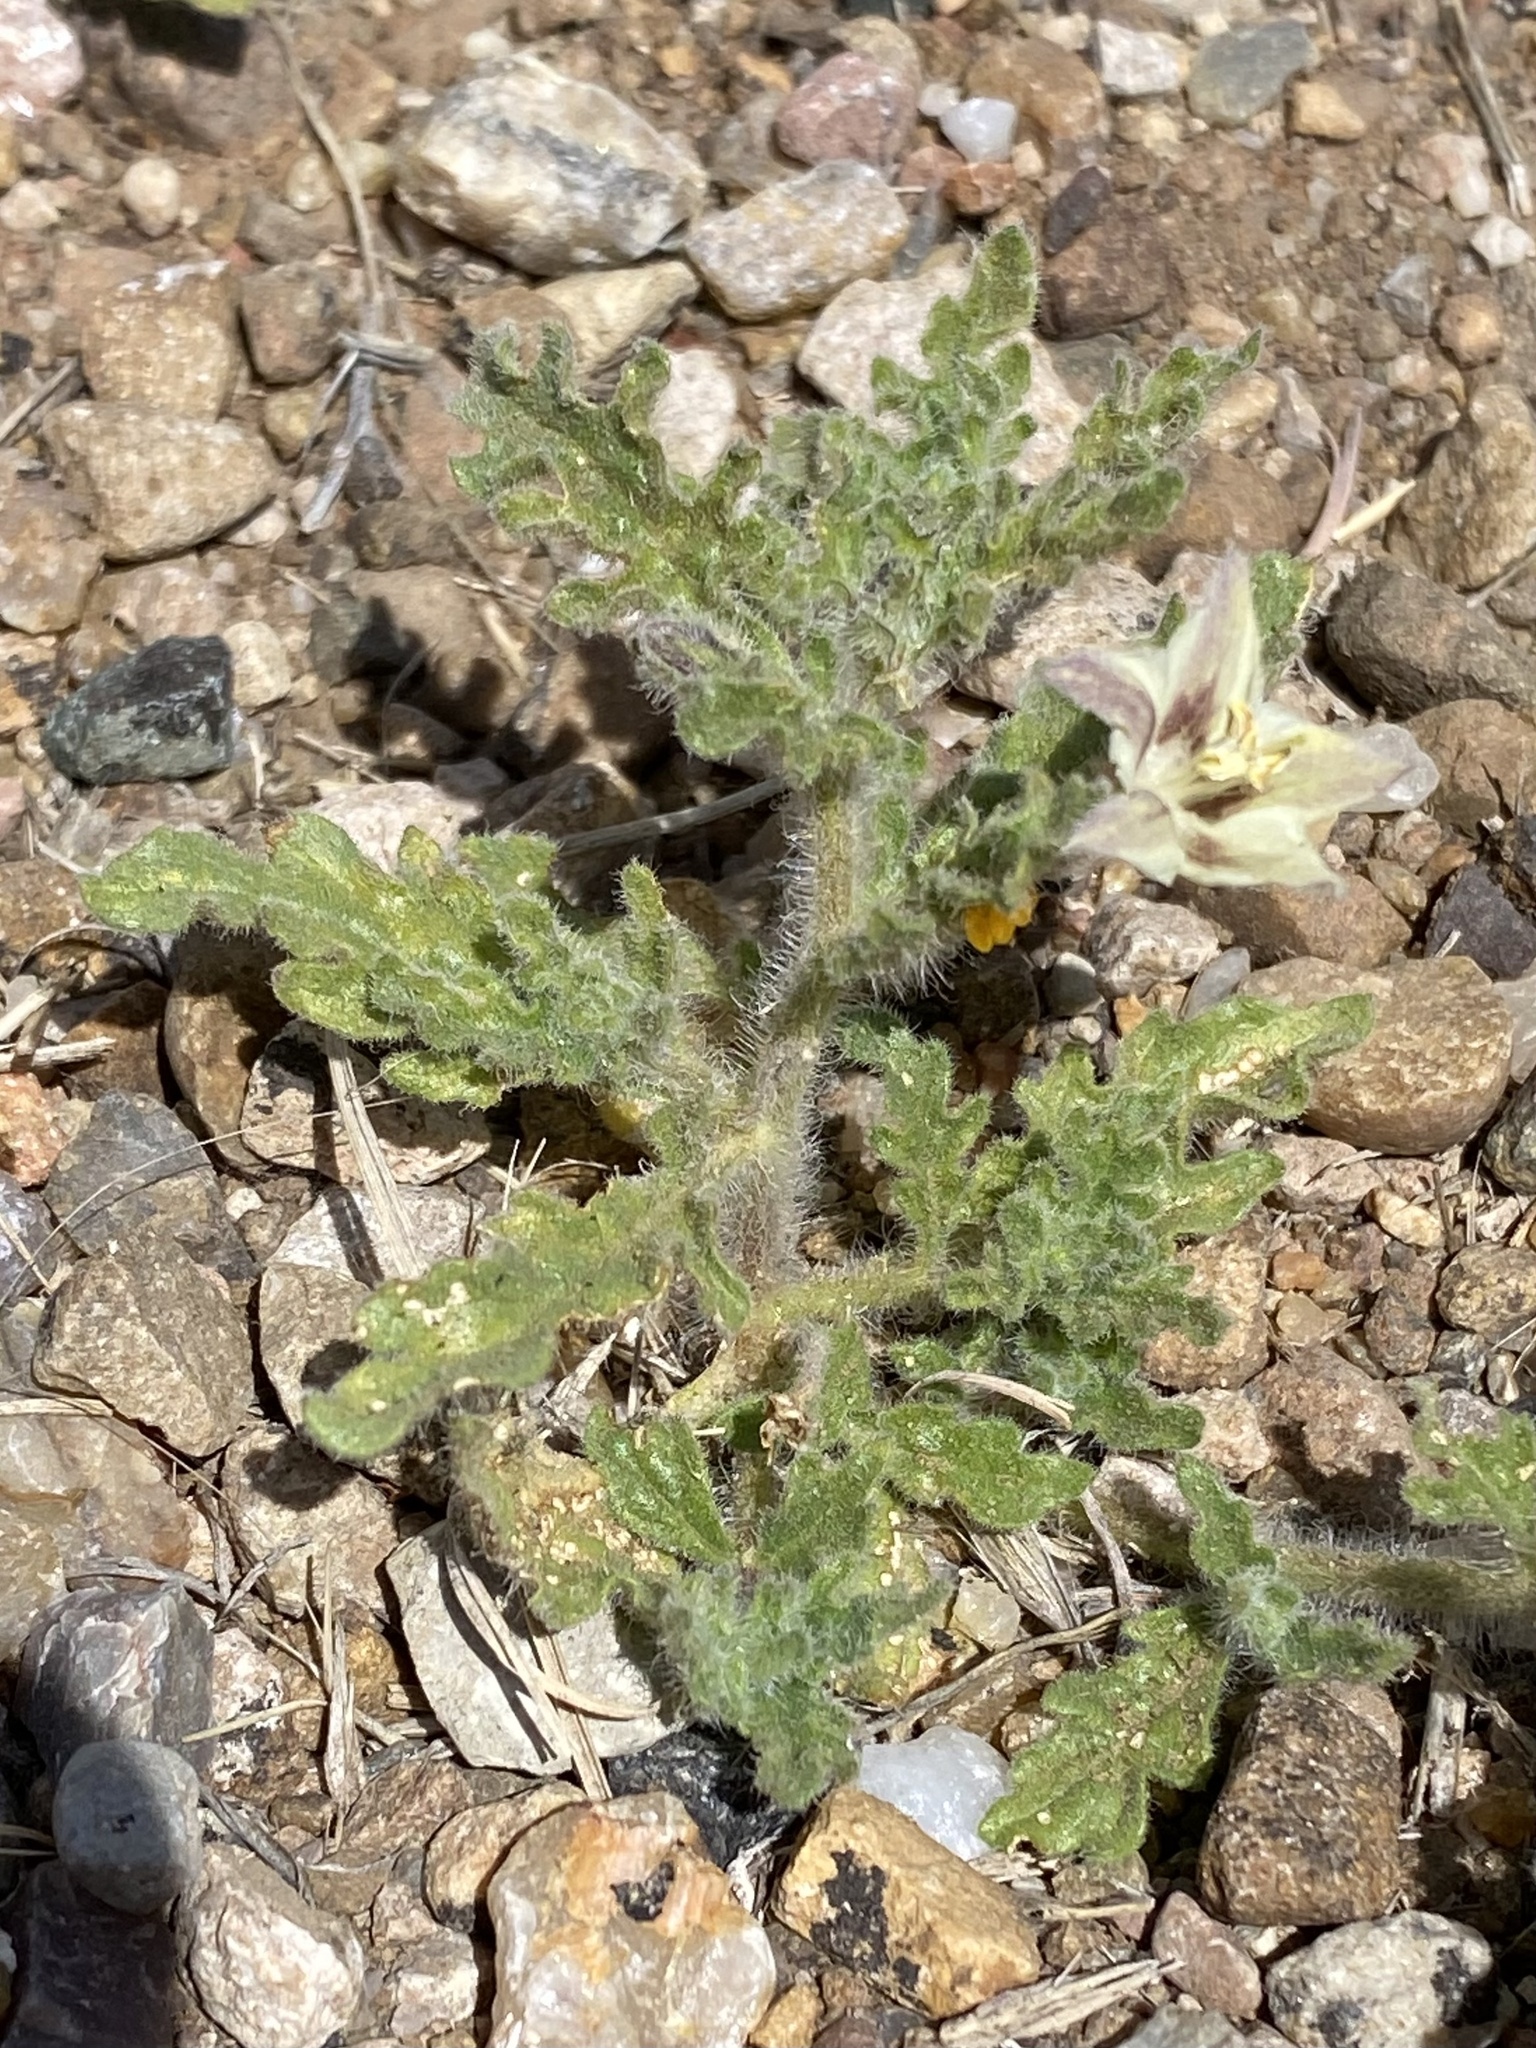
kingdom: Plantae
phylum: Tracheophyta
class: Magnoliopsida
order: Solanales
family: Solanaceae
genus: Chamaesaracha
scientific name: Chamaesaracha coniodes
